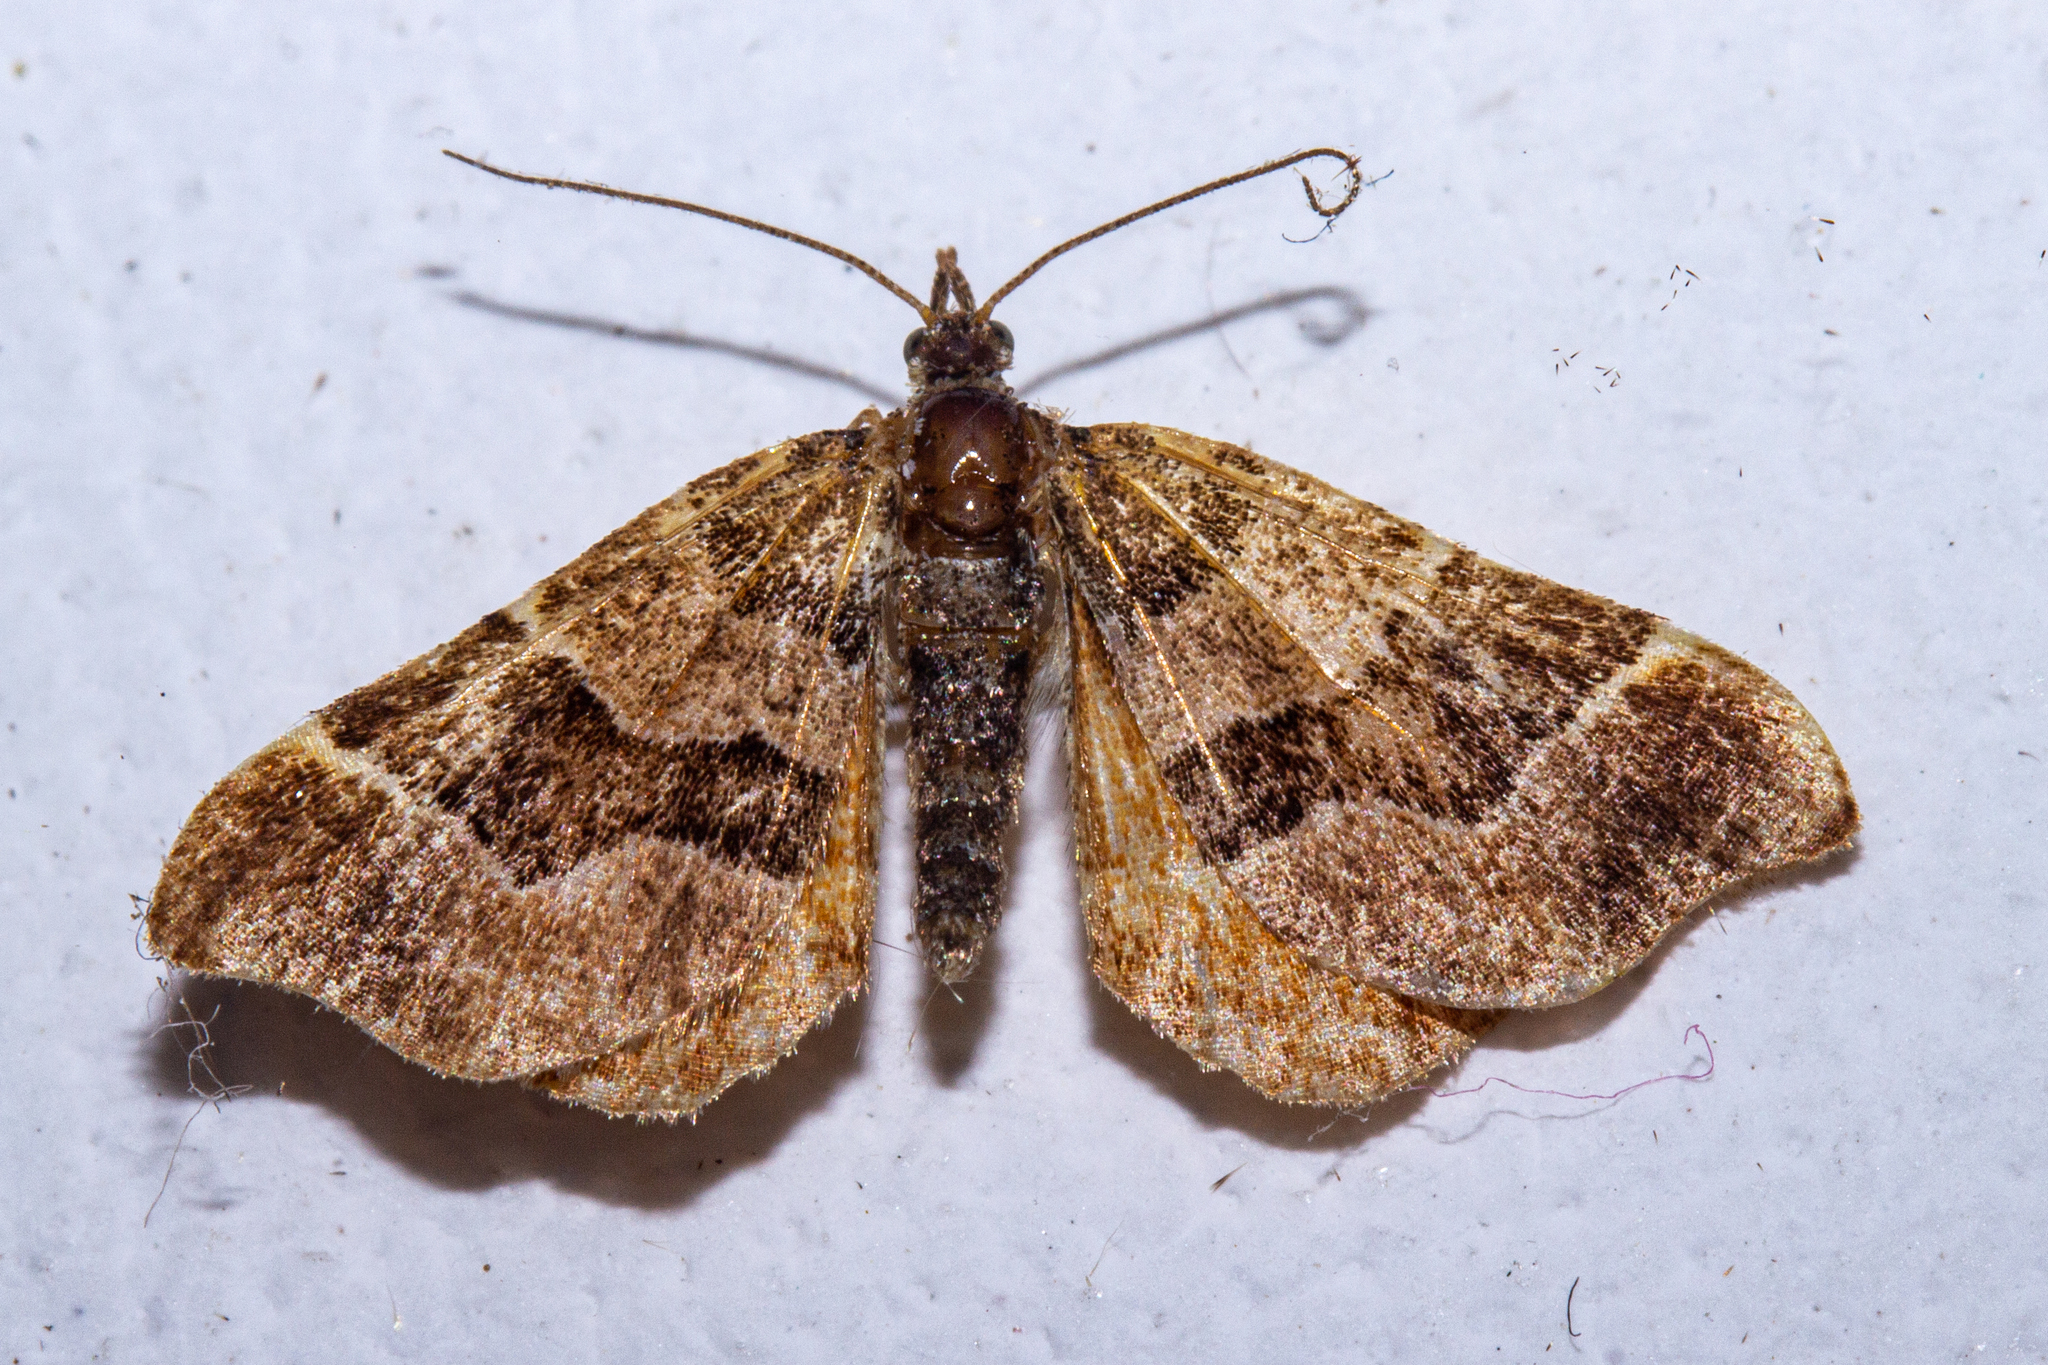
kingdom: Animalia
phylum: Arthropoda
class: Insecta
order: Lepidoptera
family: Geometridae
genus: Cephalissa
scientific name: Cephalissa siria
